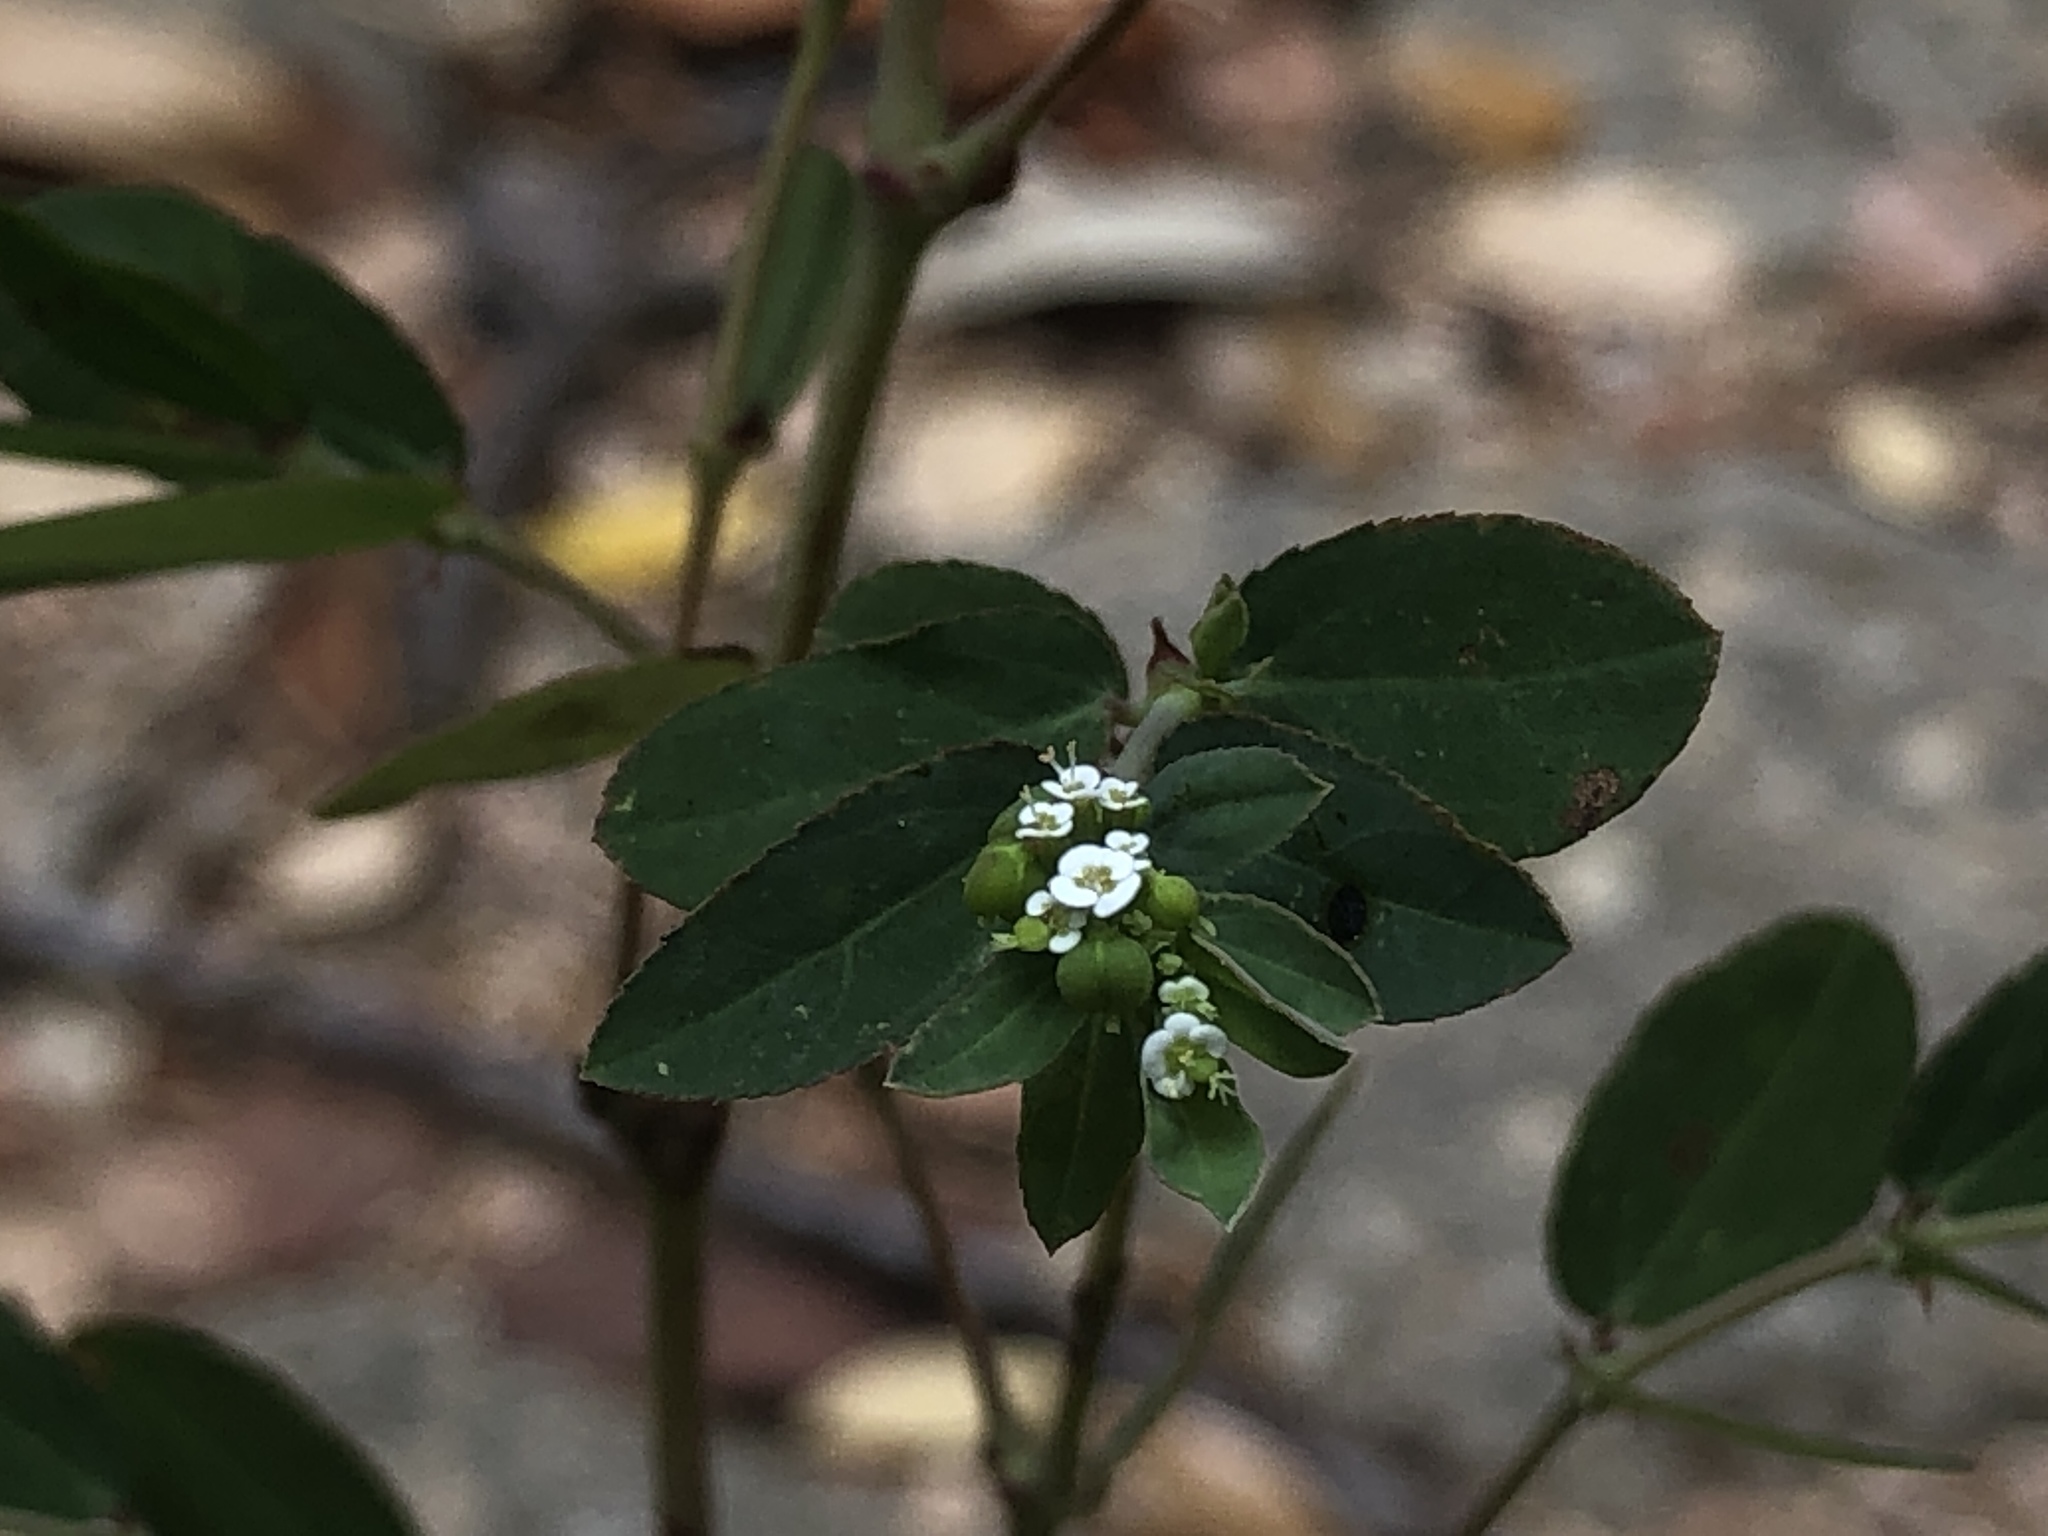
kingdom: Plantae
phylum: Tracheophyta
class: Magnoliopsida
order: Malpighiales
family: Euphorbiaceae
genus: Euphorbia
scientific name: Euphorbia hypericifolia
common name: Graceful sandmat
